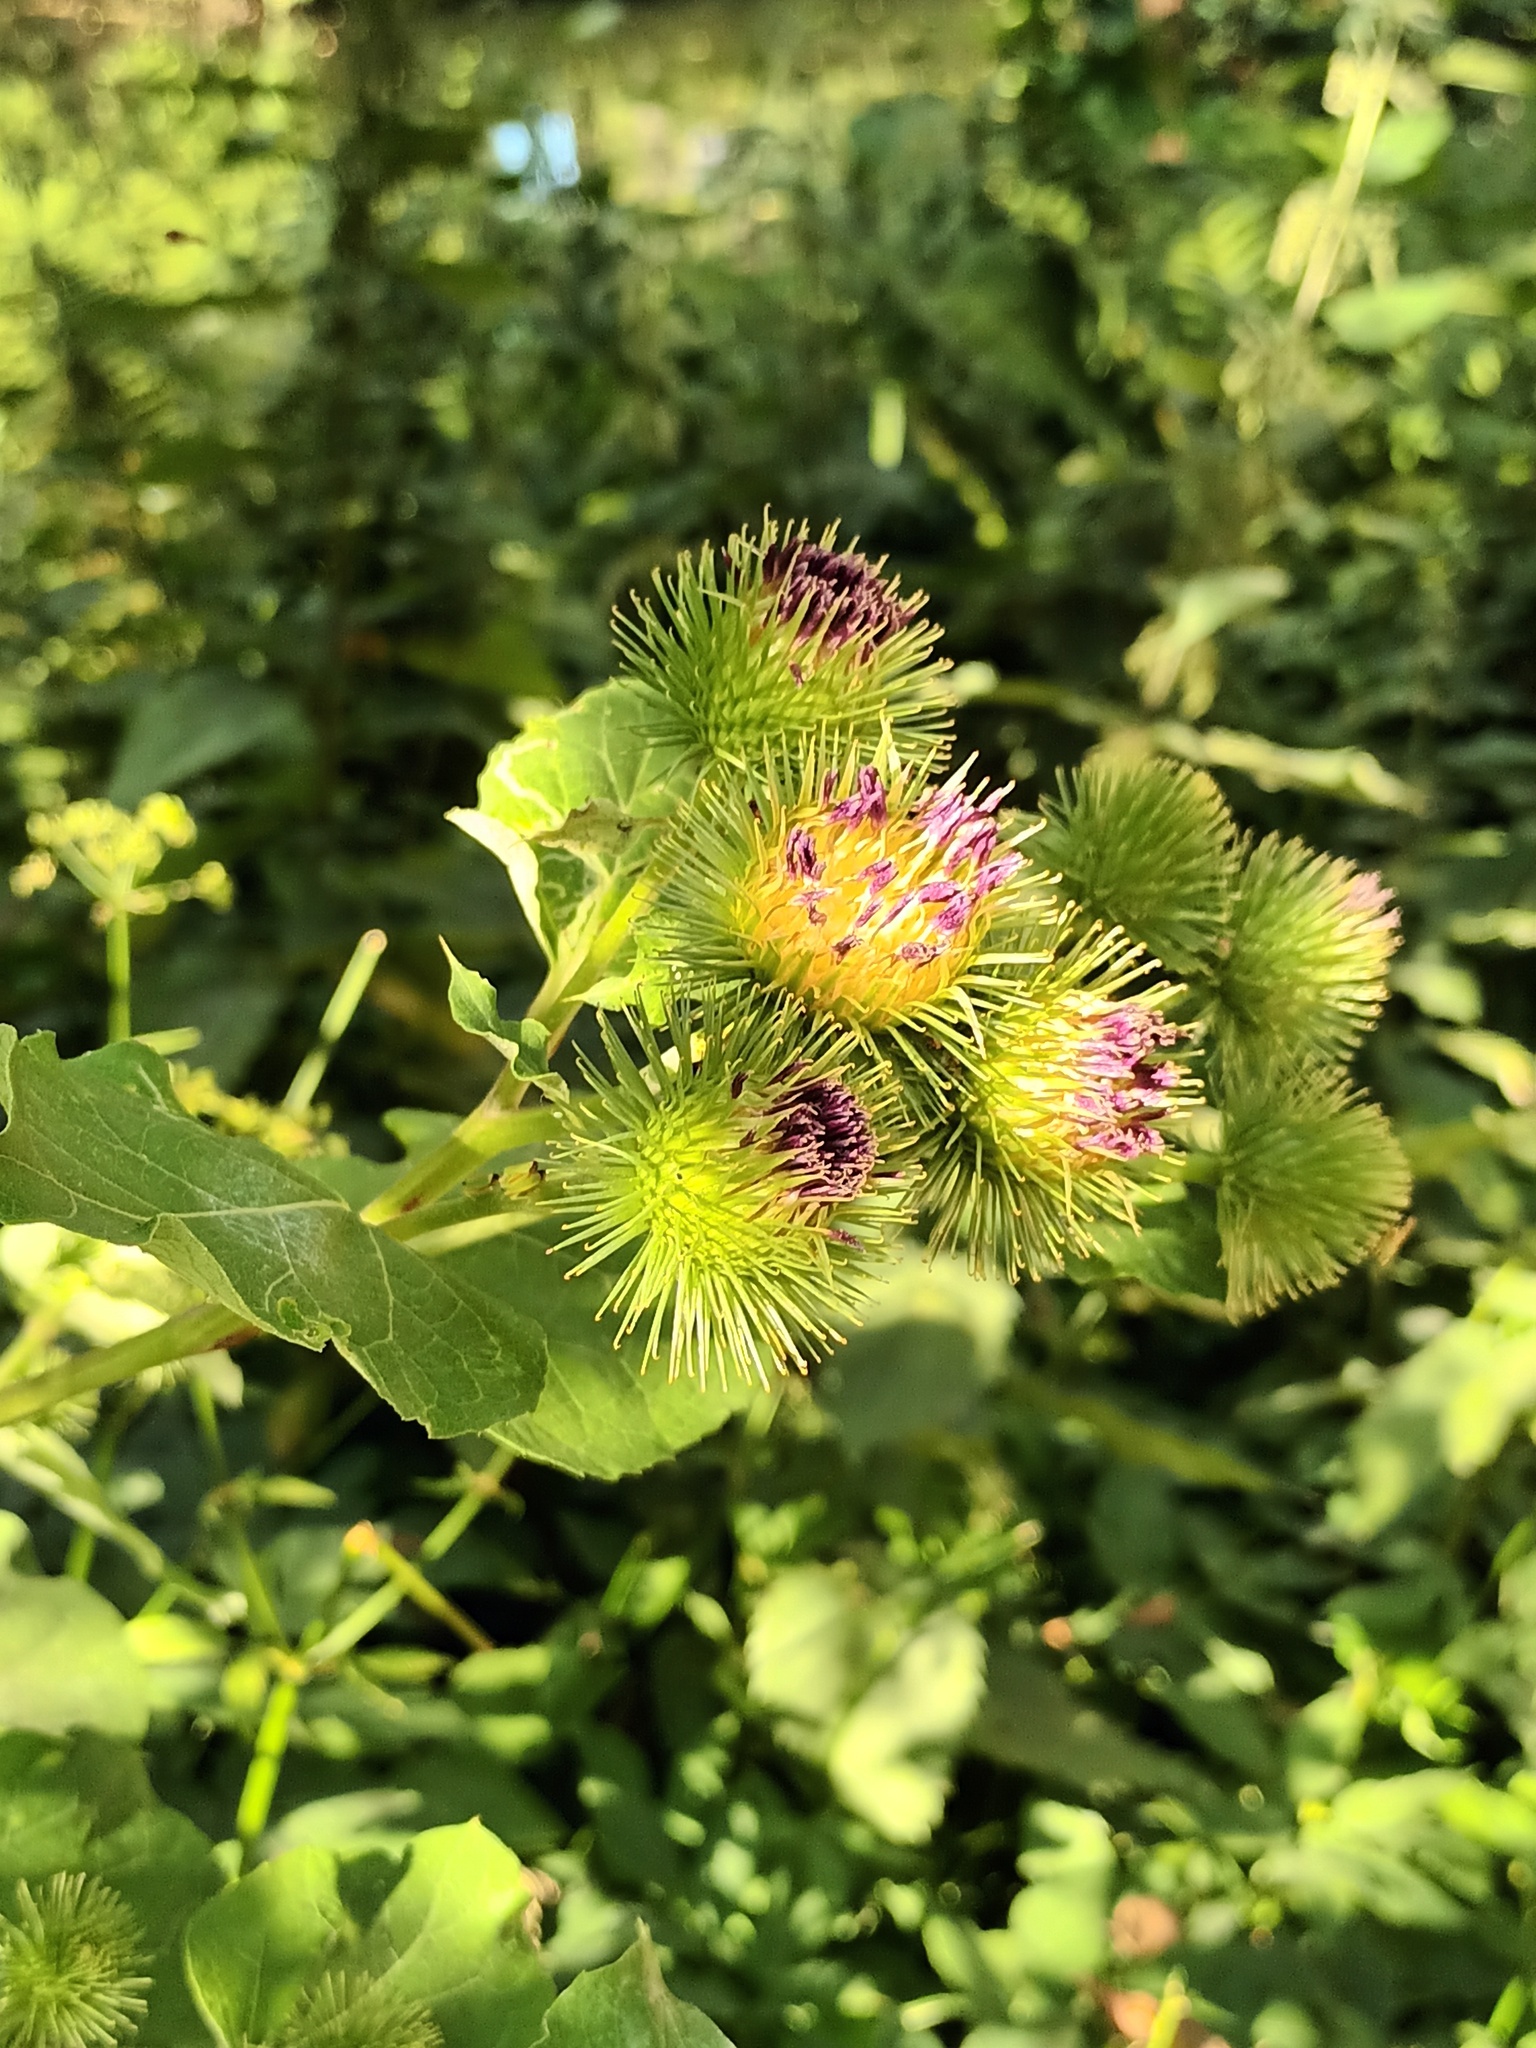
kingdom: Plantae
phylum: Tracheophyta
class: Magnoliopsida
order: Asterales
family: Asteraceae
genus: Arctium
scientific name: Arctium lappa
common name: Greater burdock
